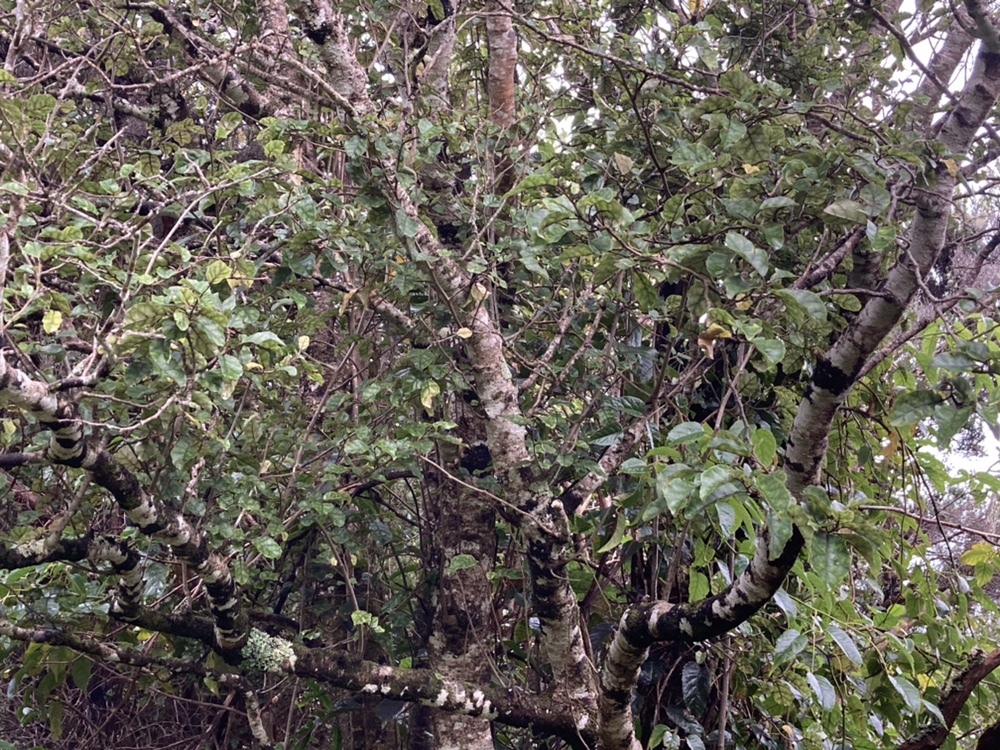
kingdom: Plantae
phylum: Tracheophyta
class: Magnoliopsida
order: Asterales
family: Rousseaceae
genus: Carpodetus
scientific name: Carpodetus serratus
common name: White mapau
